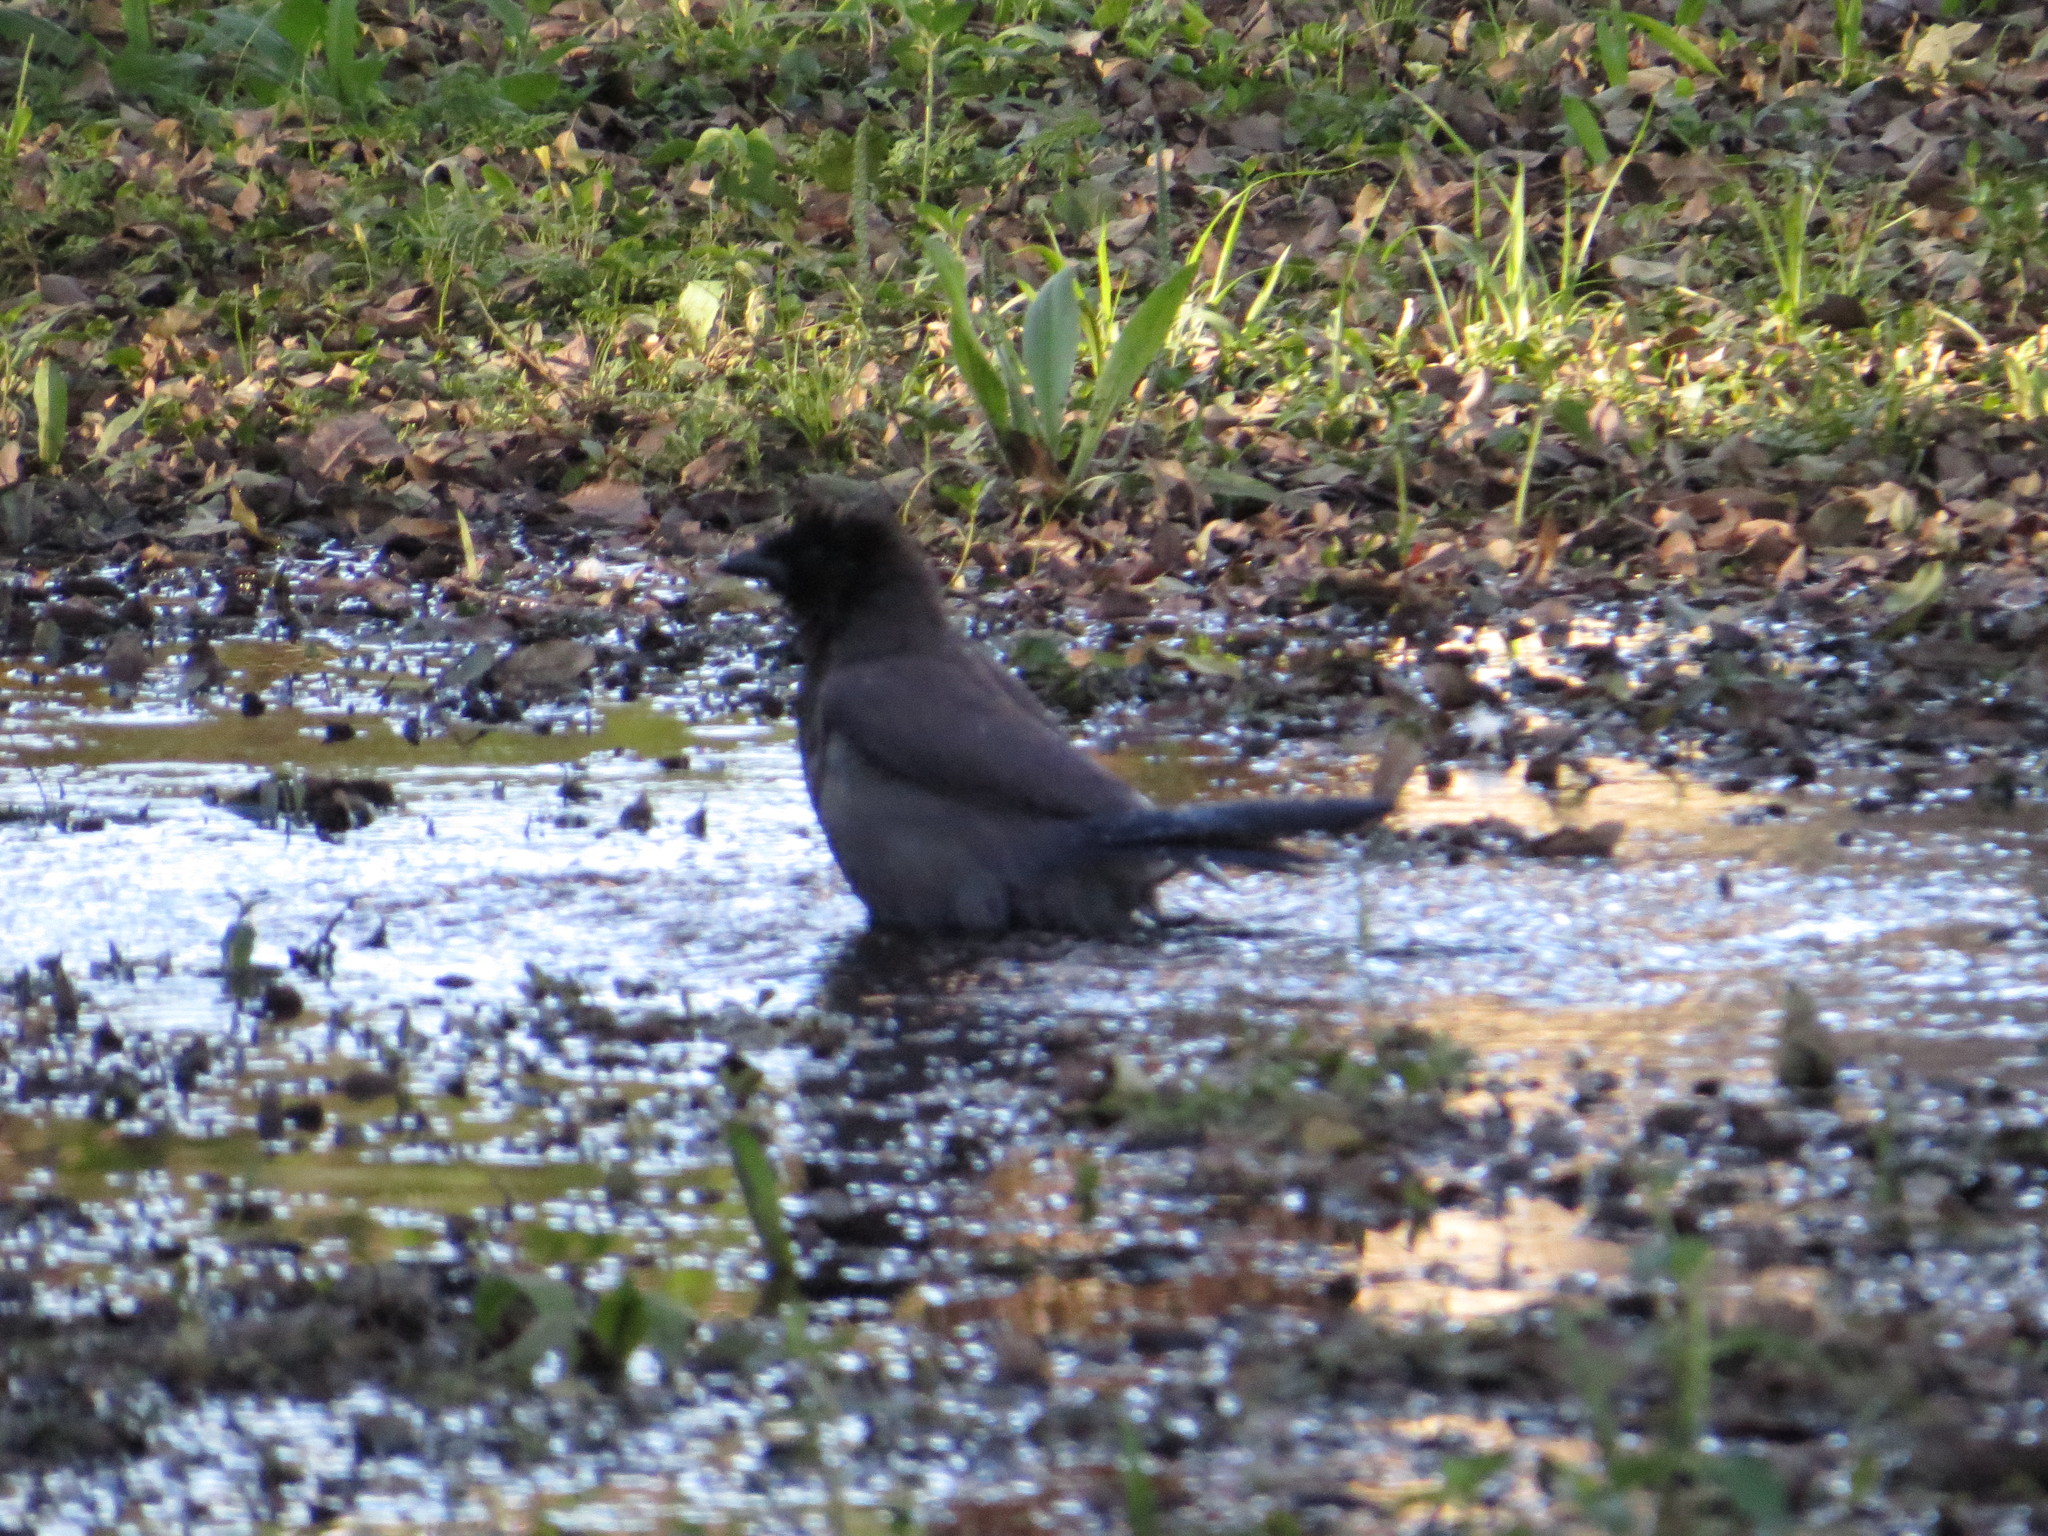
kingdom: Animalia
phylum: Chordata
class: Aves
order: Passeriformes
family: Icteridae
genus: Molothrus
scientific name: Molothrus bonariensis
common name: Shiny cowbird
